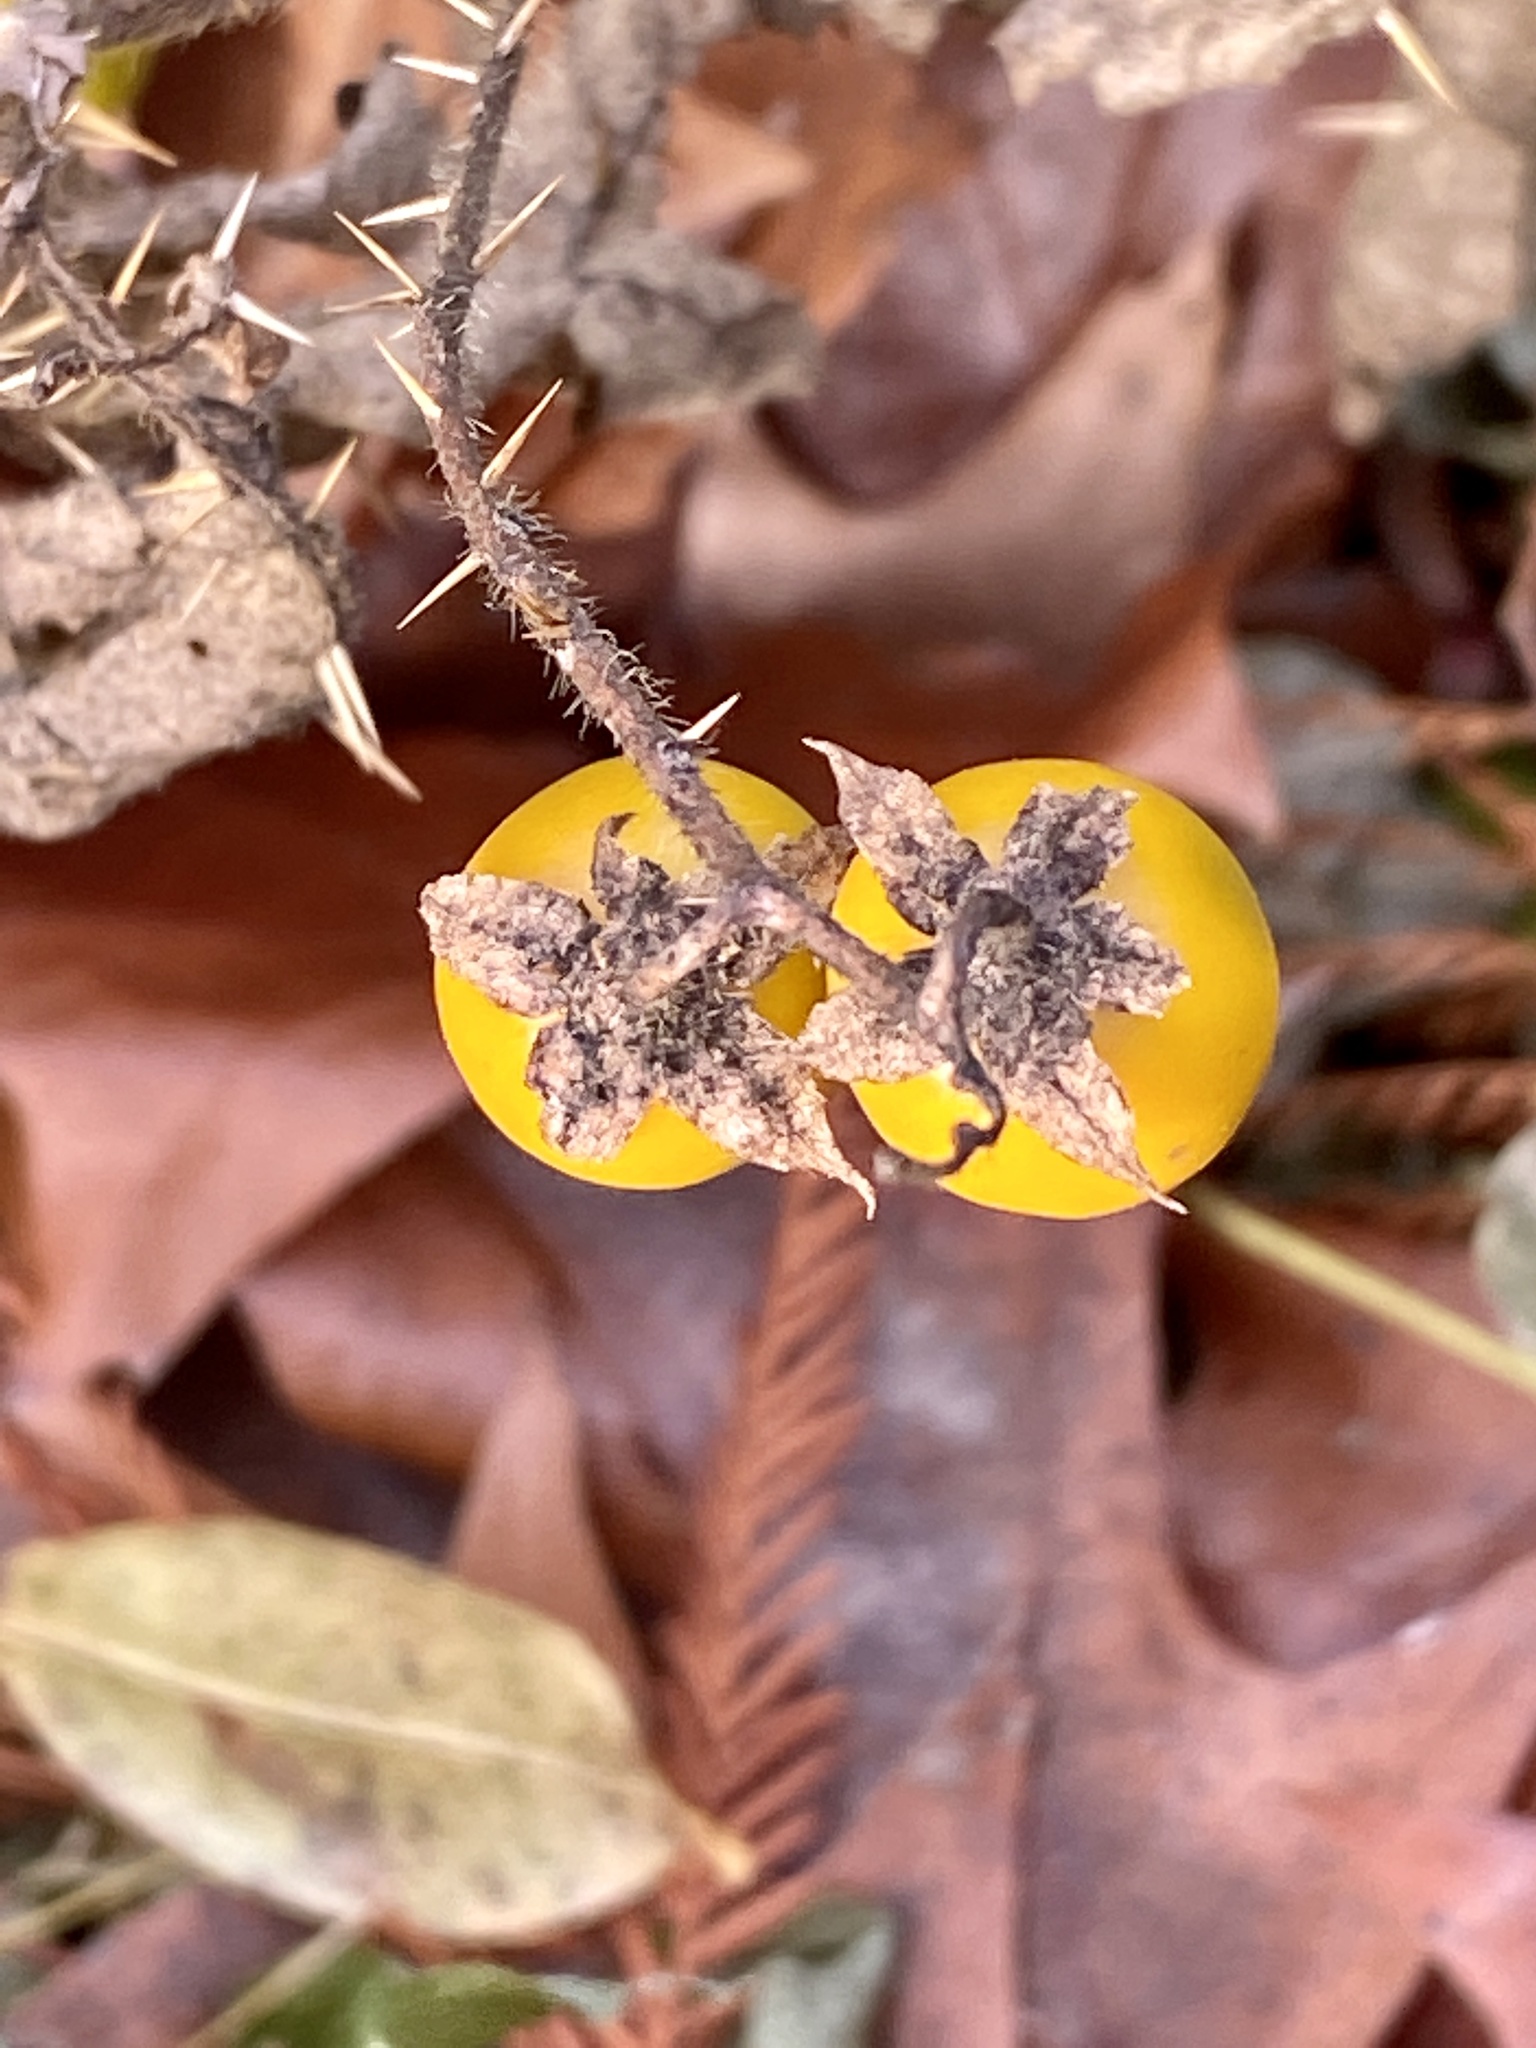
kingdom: Plantae
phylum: Tracheophyta
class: Magnoliopsida
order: Solanales
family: Solanaceae
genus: Solanum
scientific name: Solanum carolinense
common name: Horse-nettle
